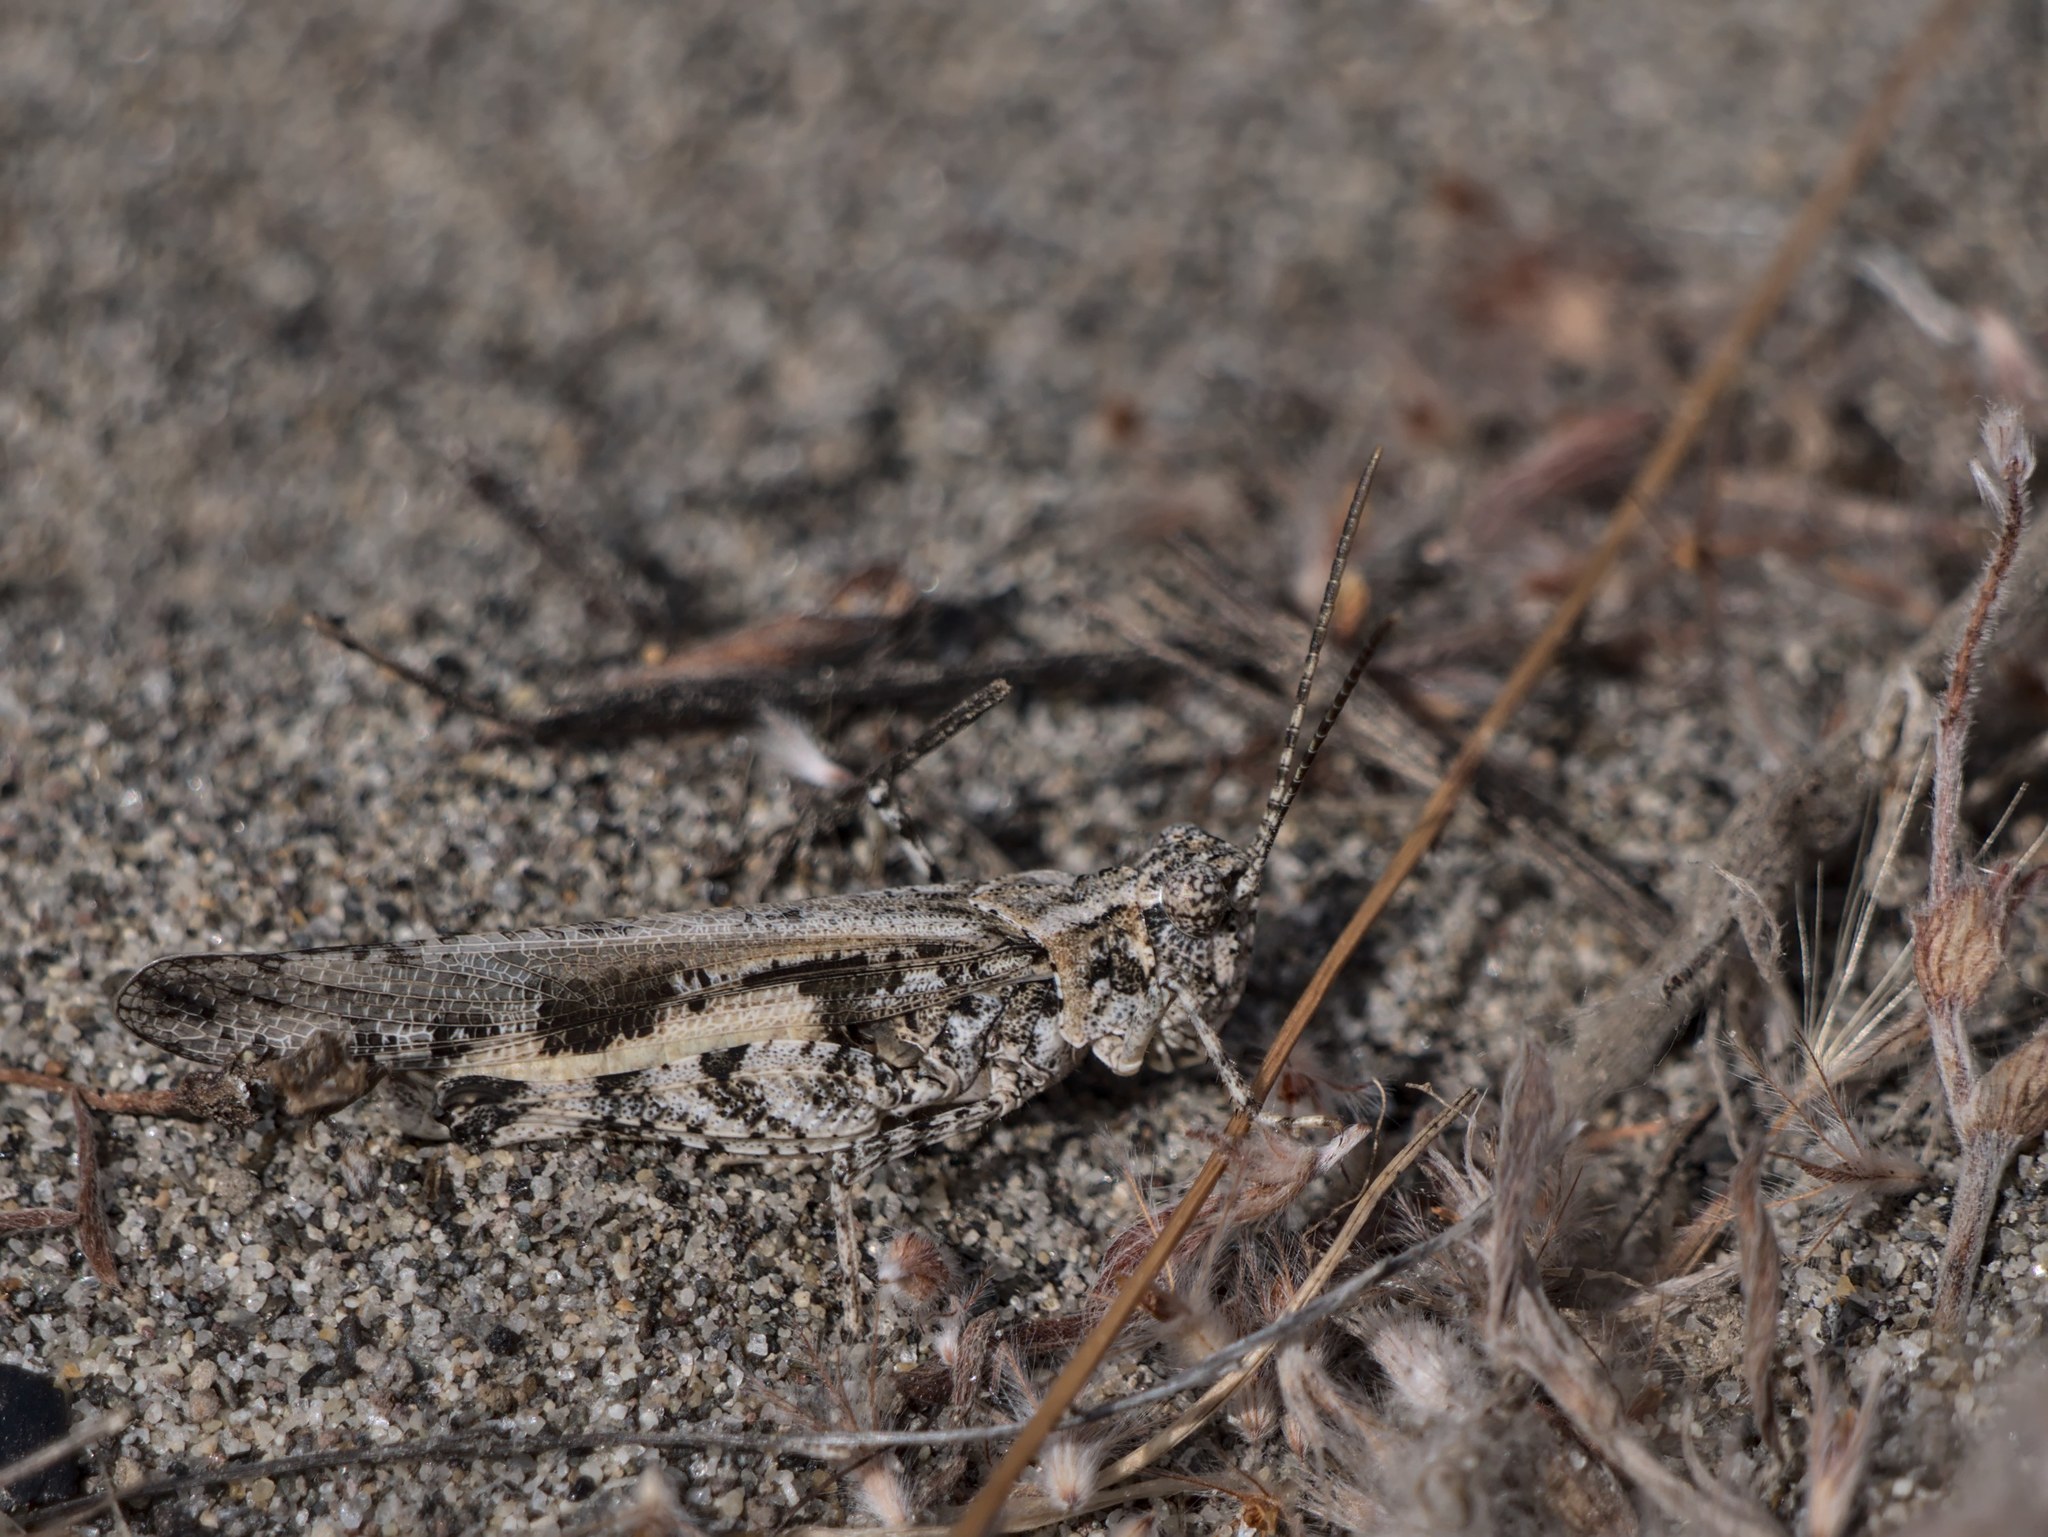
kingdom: Animalia
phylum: Arthropoda
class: Insecta
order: Orthoptera
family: Acrididae
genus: Conozoa
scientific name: Conozoa texana
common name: Cristate grasshopper
